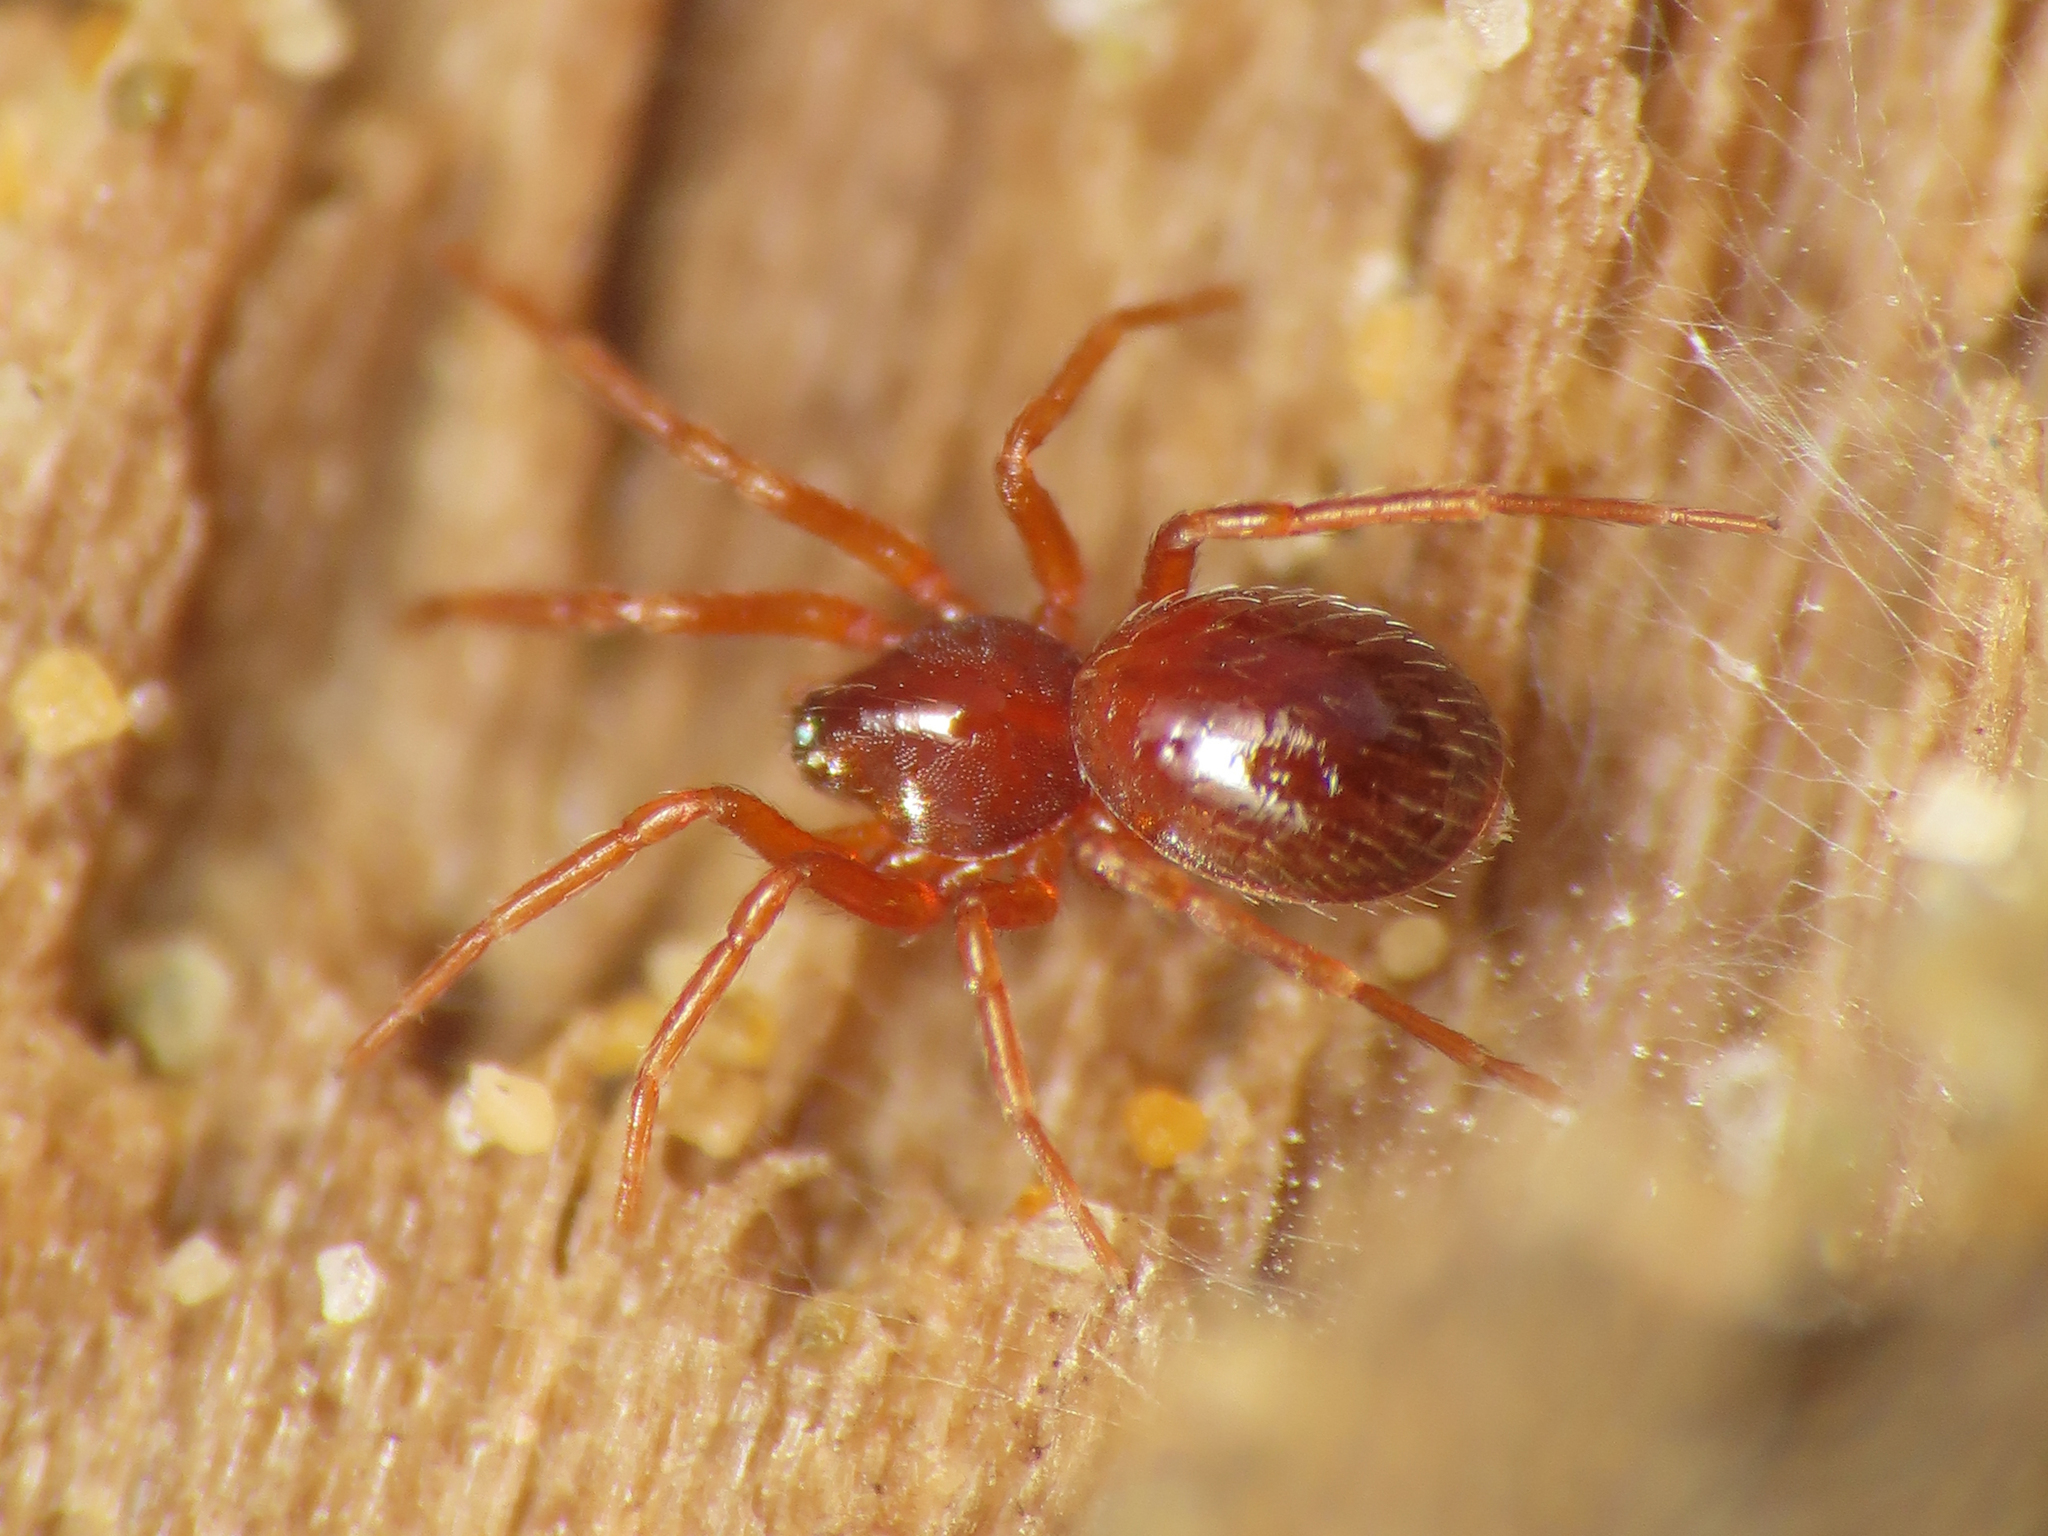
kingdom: Animalia
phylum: Arthropoda
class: Arachnida
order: Araneae
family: Oonopidae
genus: Silhouettella
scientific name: Silhouettella loricatula
